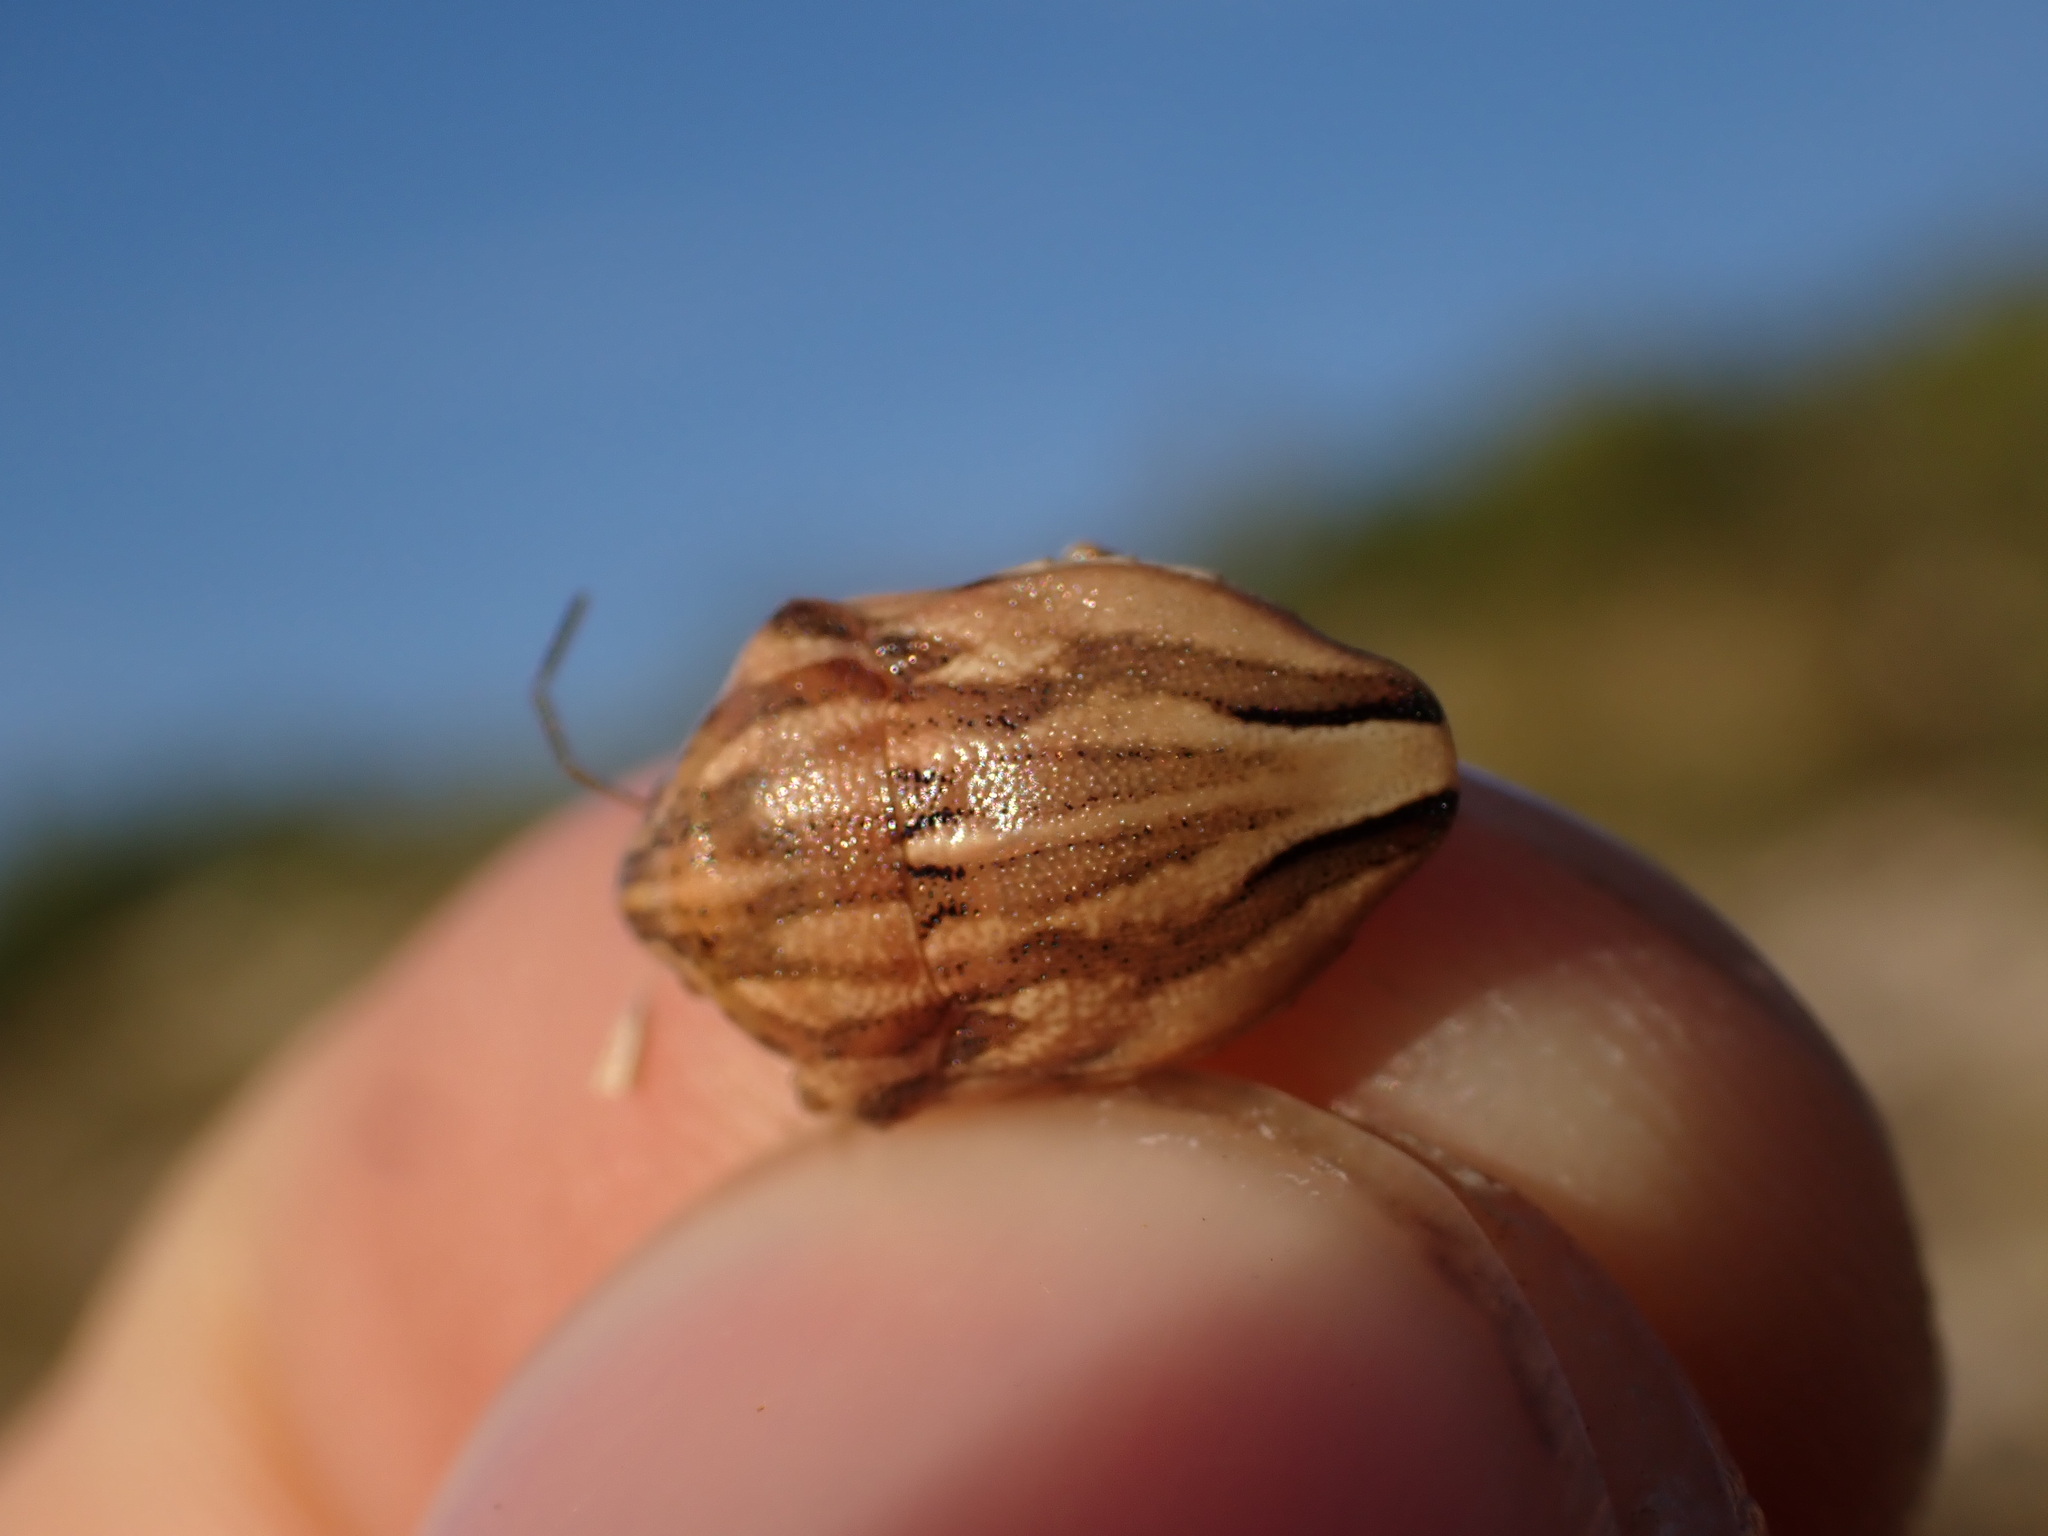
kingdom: Animalia
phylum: Arthropoda
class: Insecta
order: Hemiptera
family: Scutelleridae
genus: Odontotarsus
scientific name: Odontotarsus purpureolineatus
